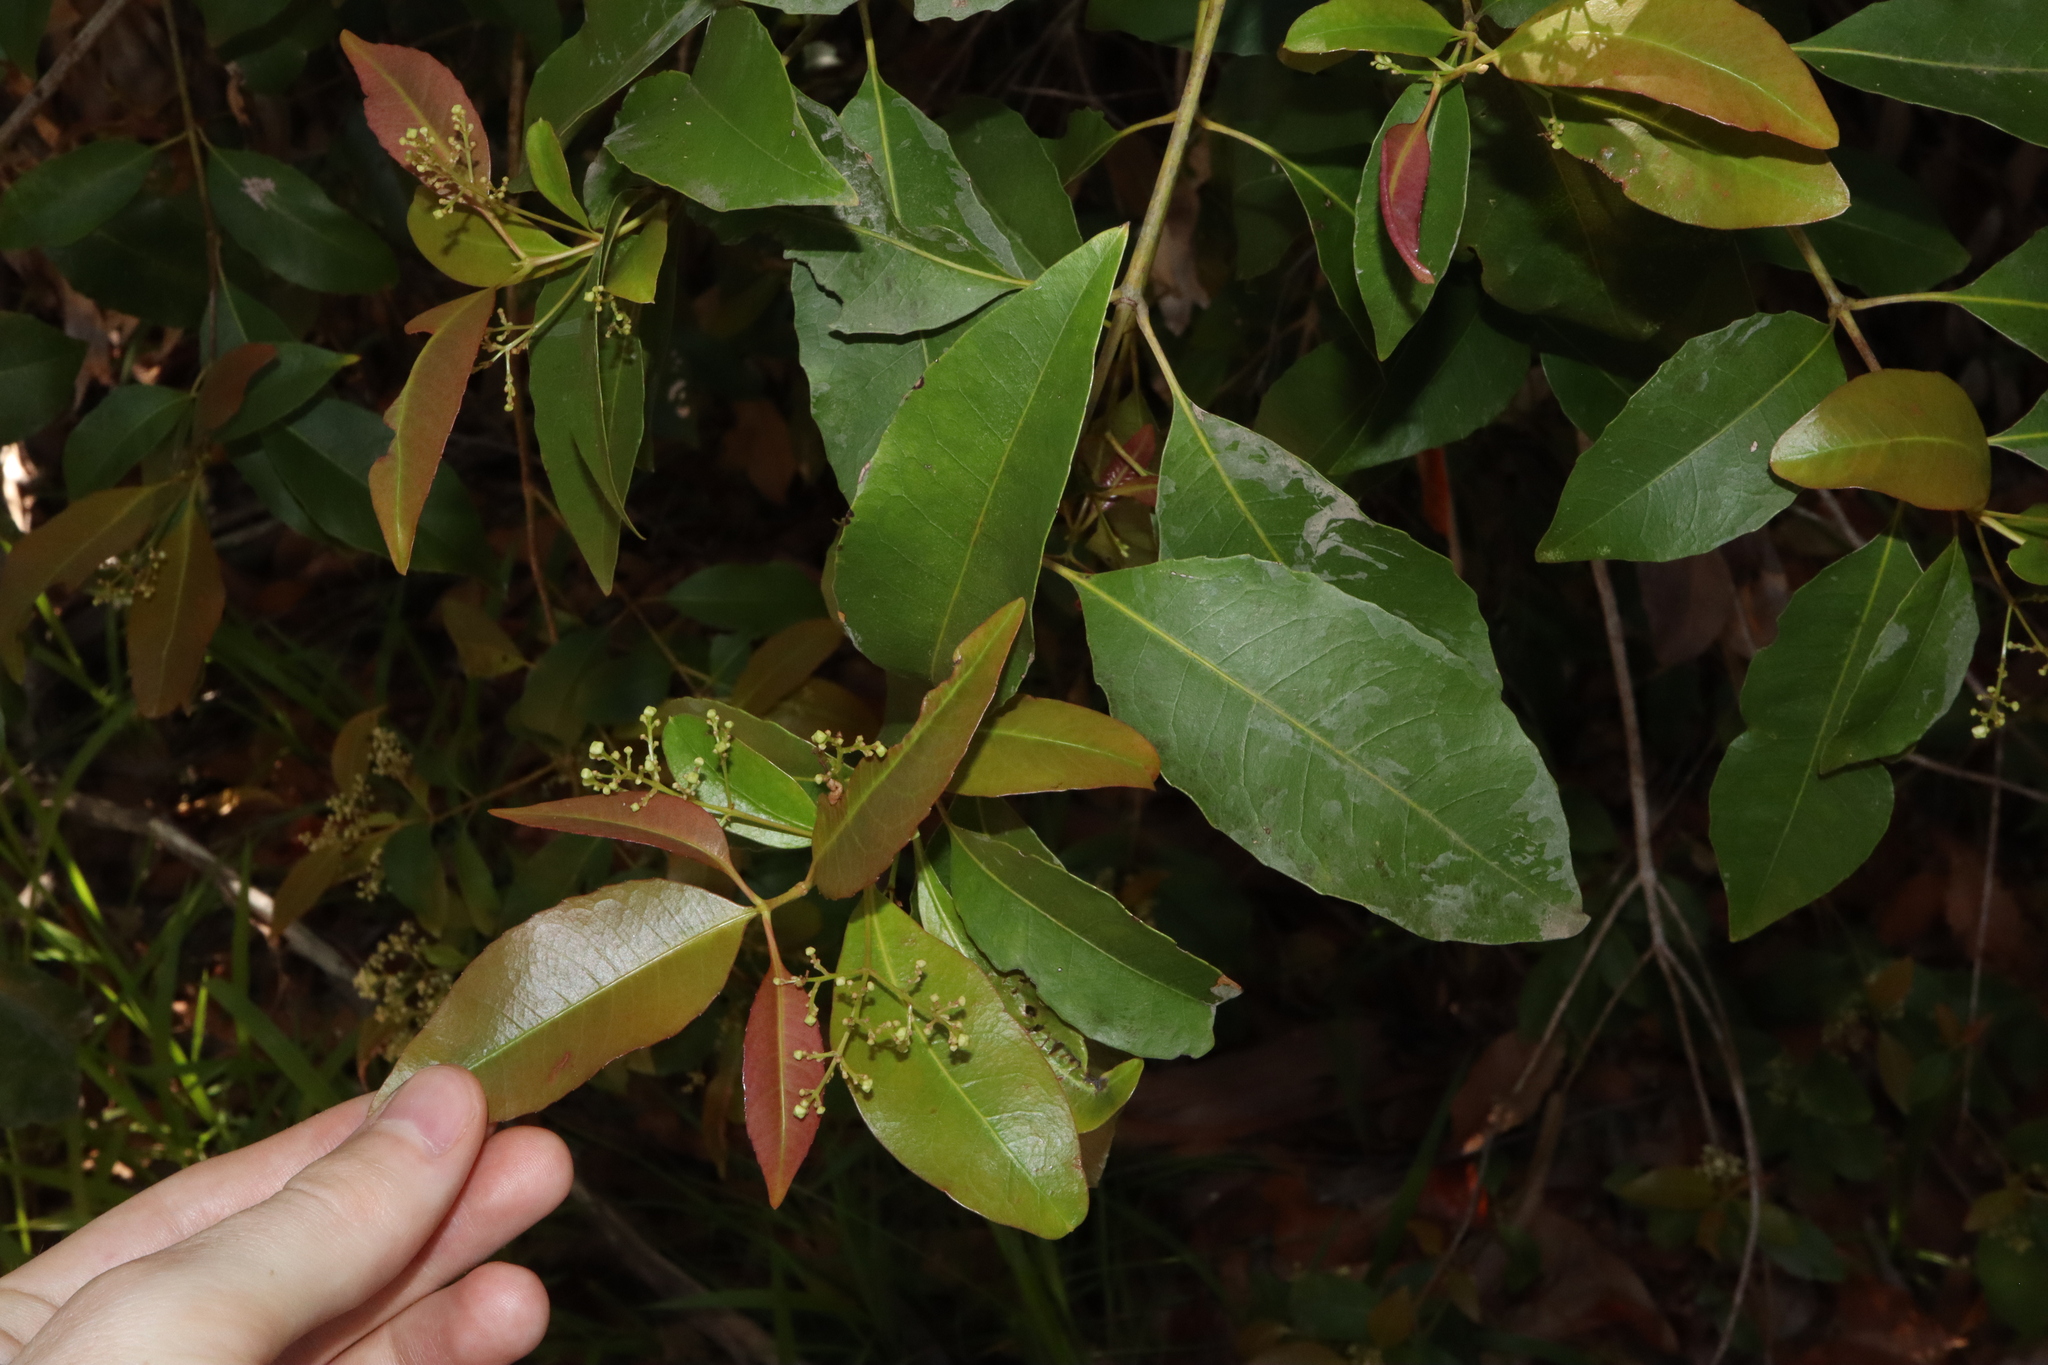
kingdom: Plantae
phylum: Tracheophyta
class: Magnoliopsida
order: Oxalidales
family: Cunoniaceae
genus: Schizomeria
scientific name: Schizomeria ovata
